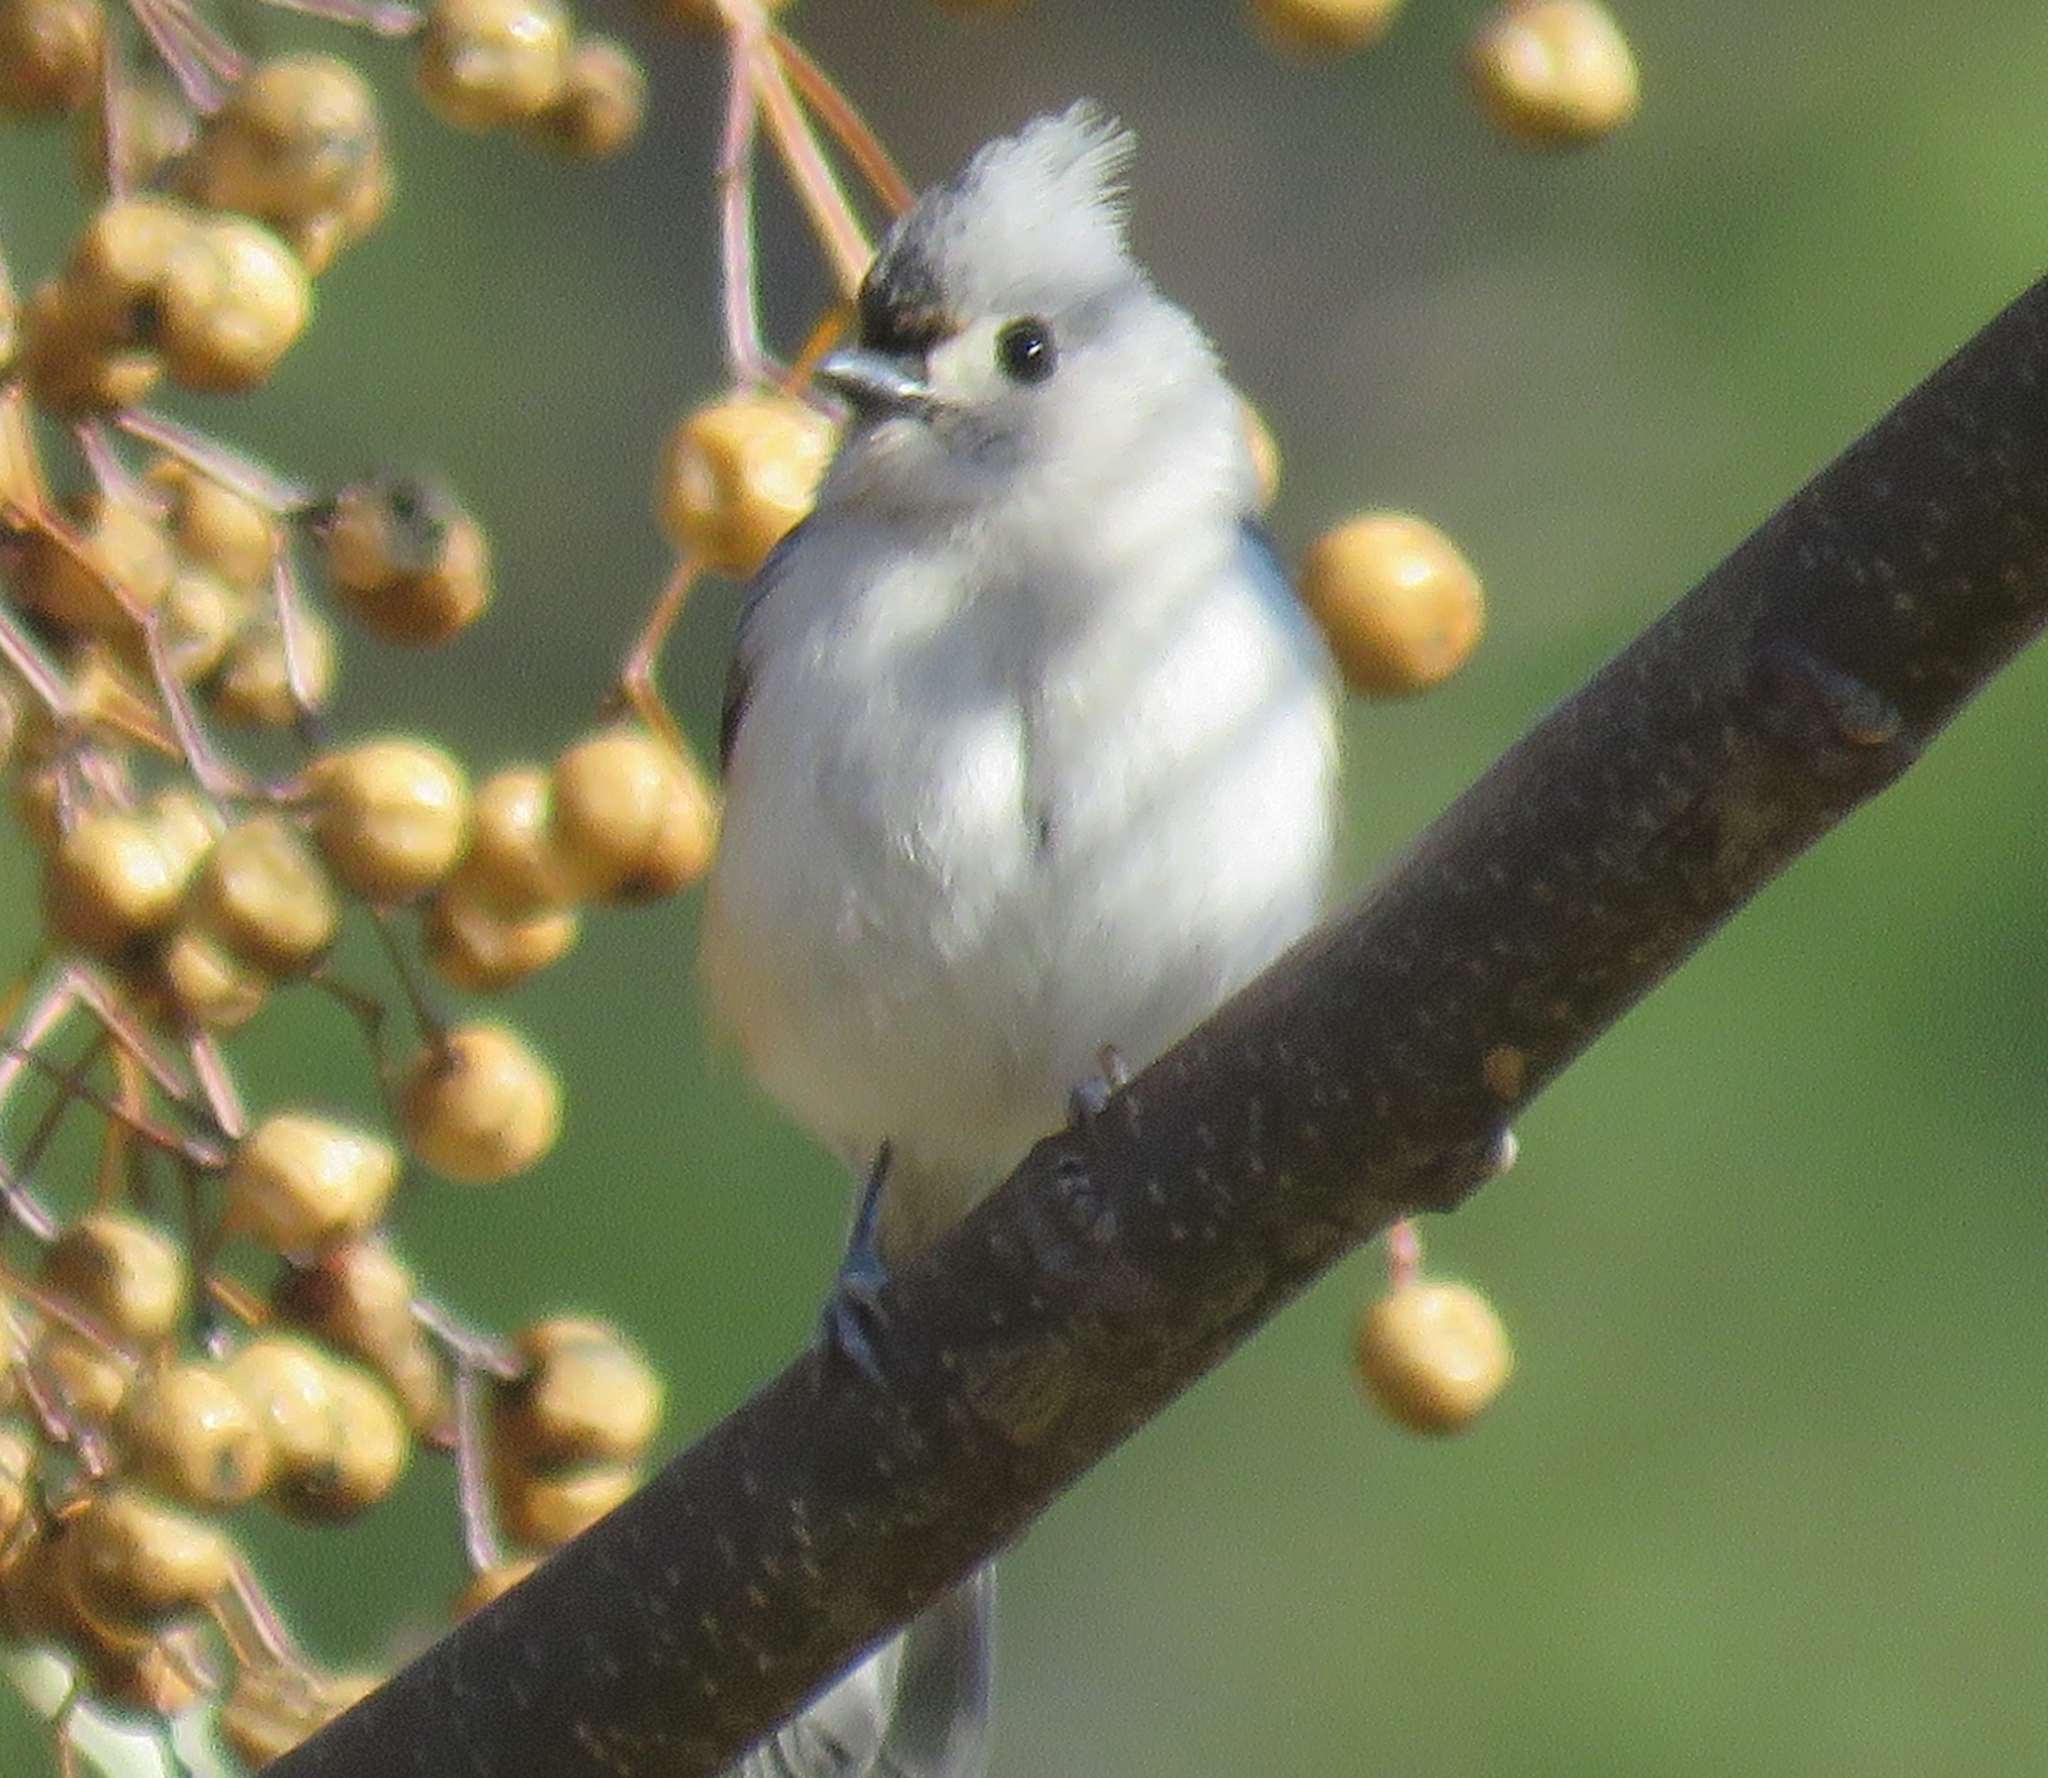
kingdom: Animalia
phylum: Chordata
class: Aves
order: Passeriformes
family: Paridae
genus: Baeolophus
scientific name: Baeolophus bicolor
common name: Tufted titmouse
